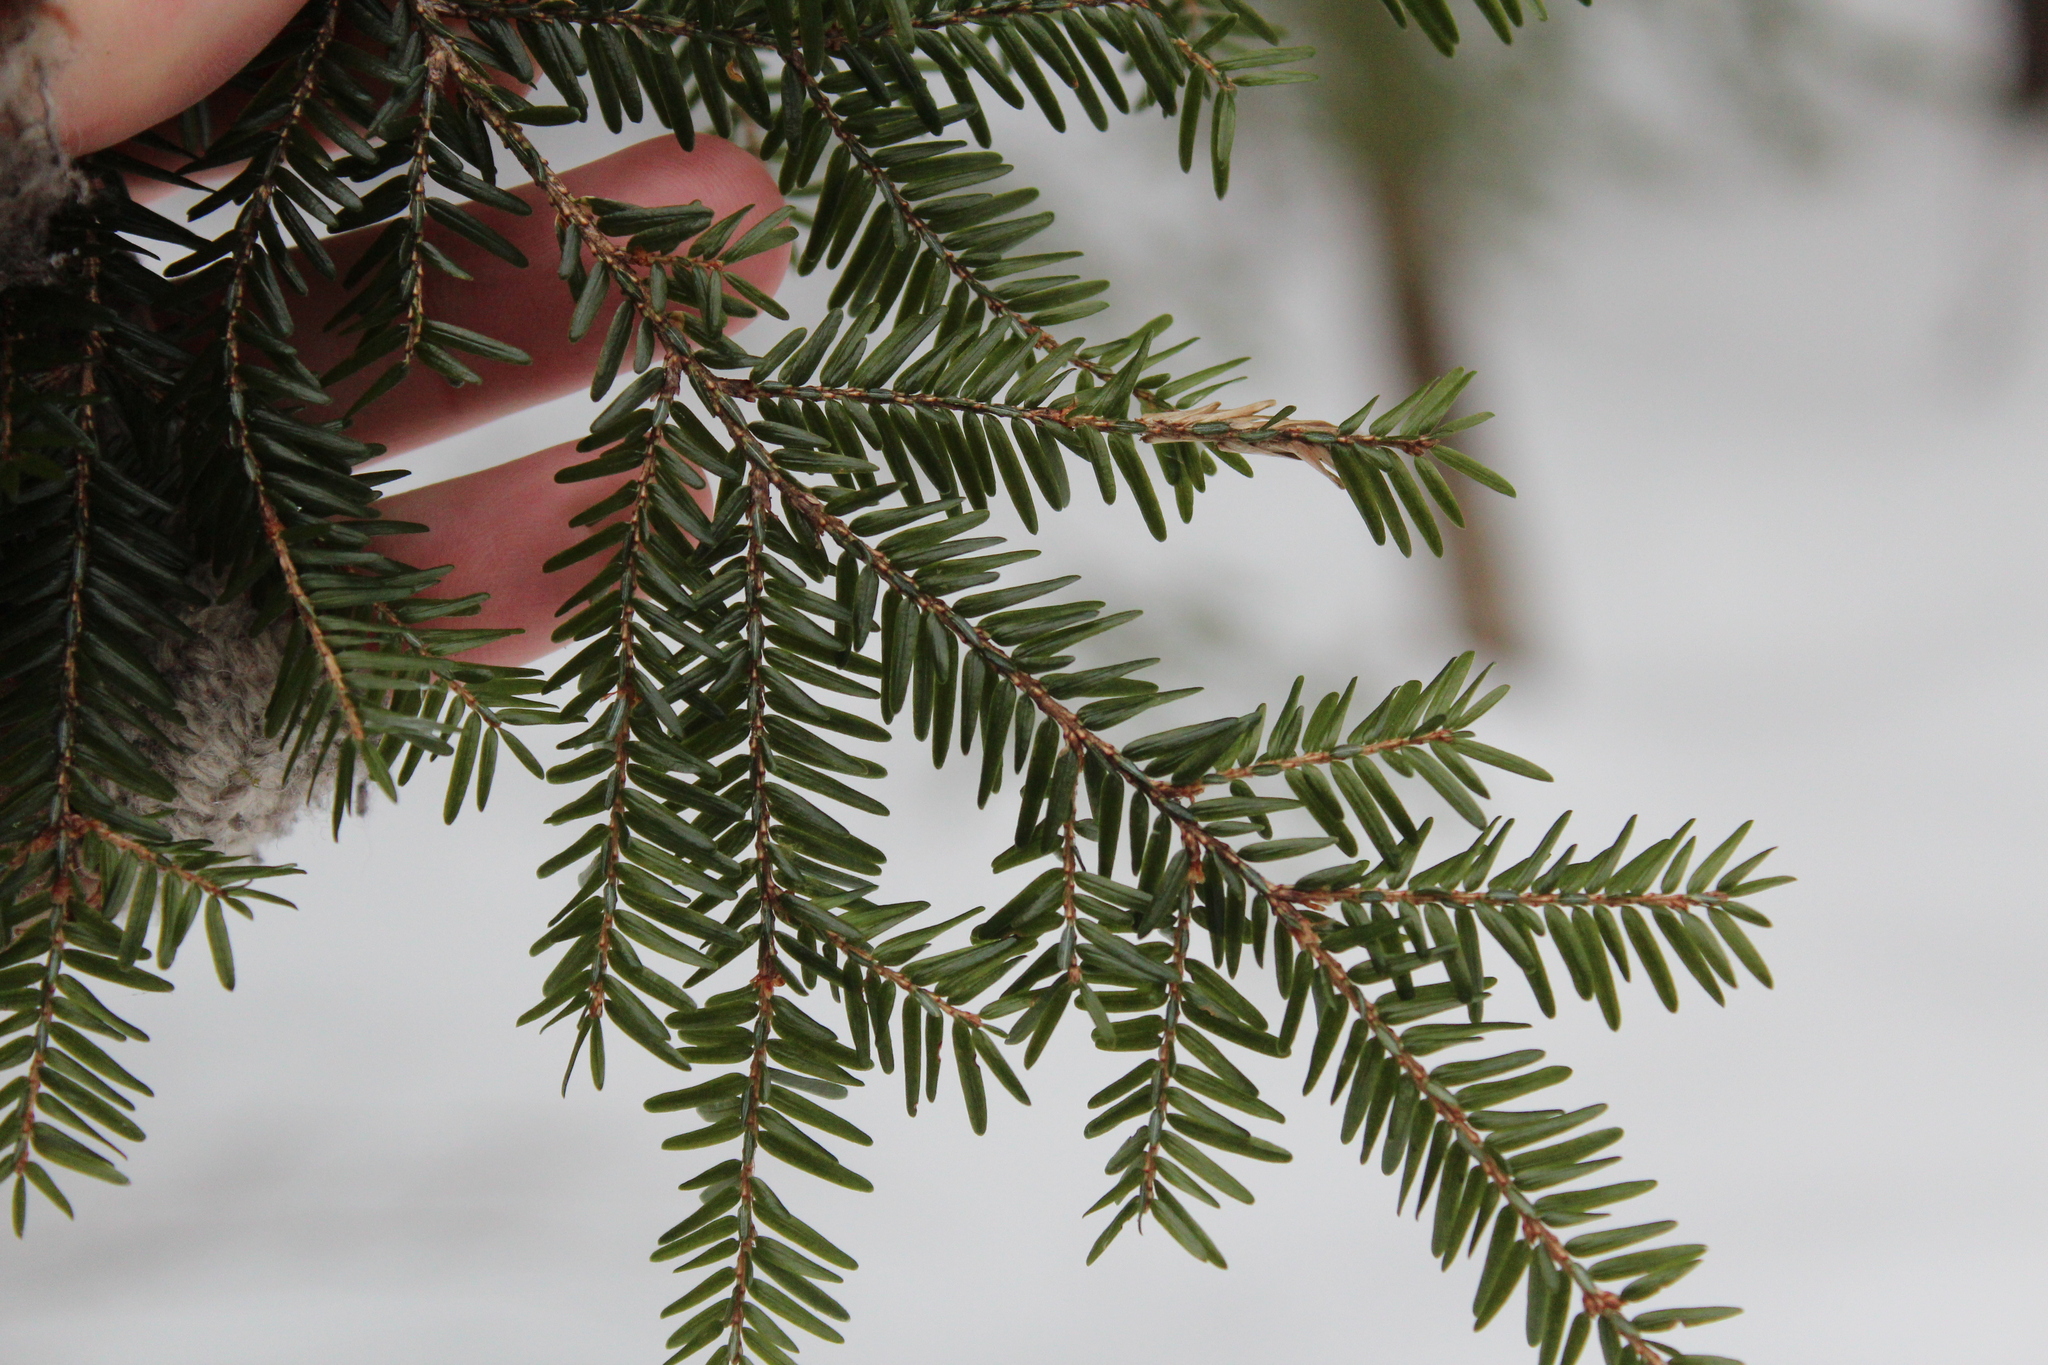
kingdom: Plantae
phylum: Tracheophyta
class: Pinopsida
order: Pinales
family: Pinaceae
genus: Tsuga
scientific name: Tsuga canadensis
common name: Eastern hemlock
